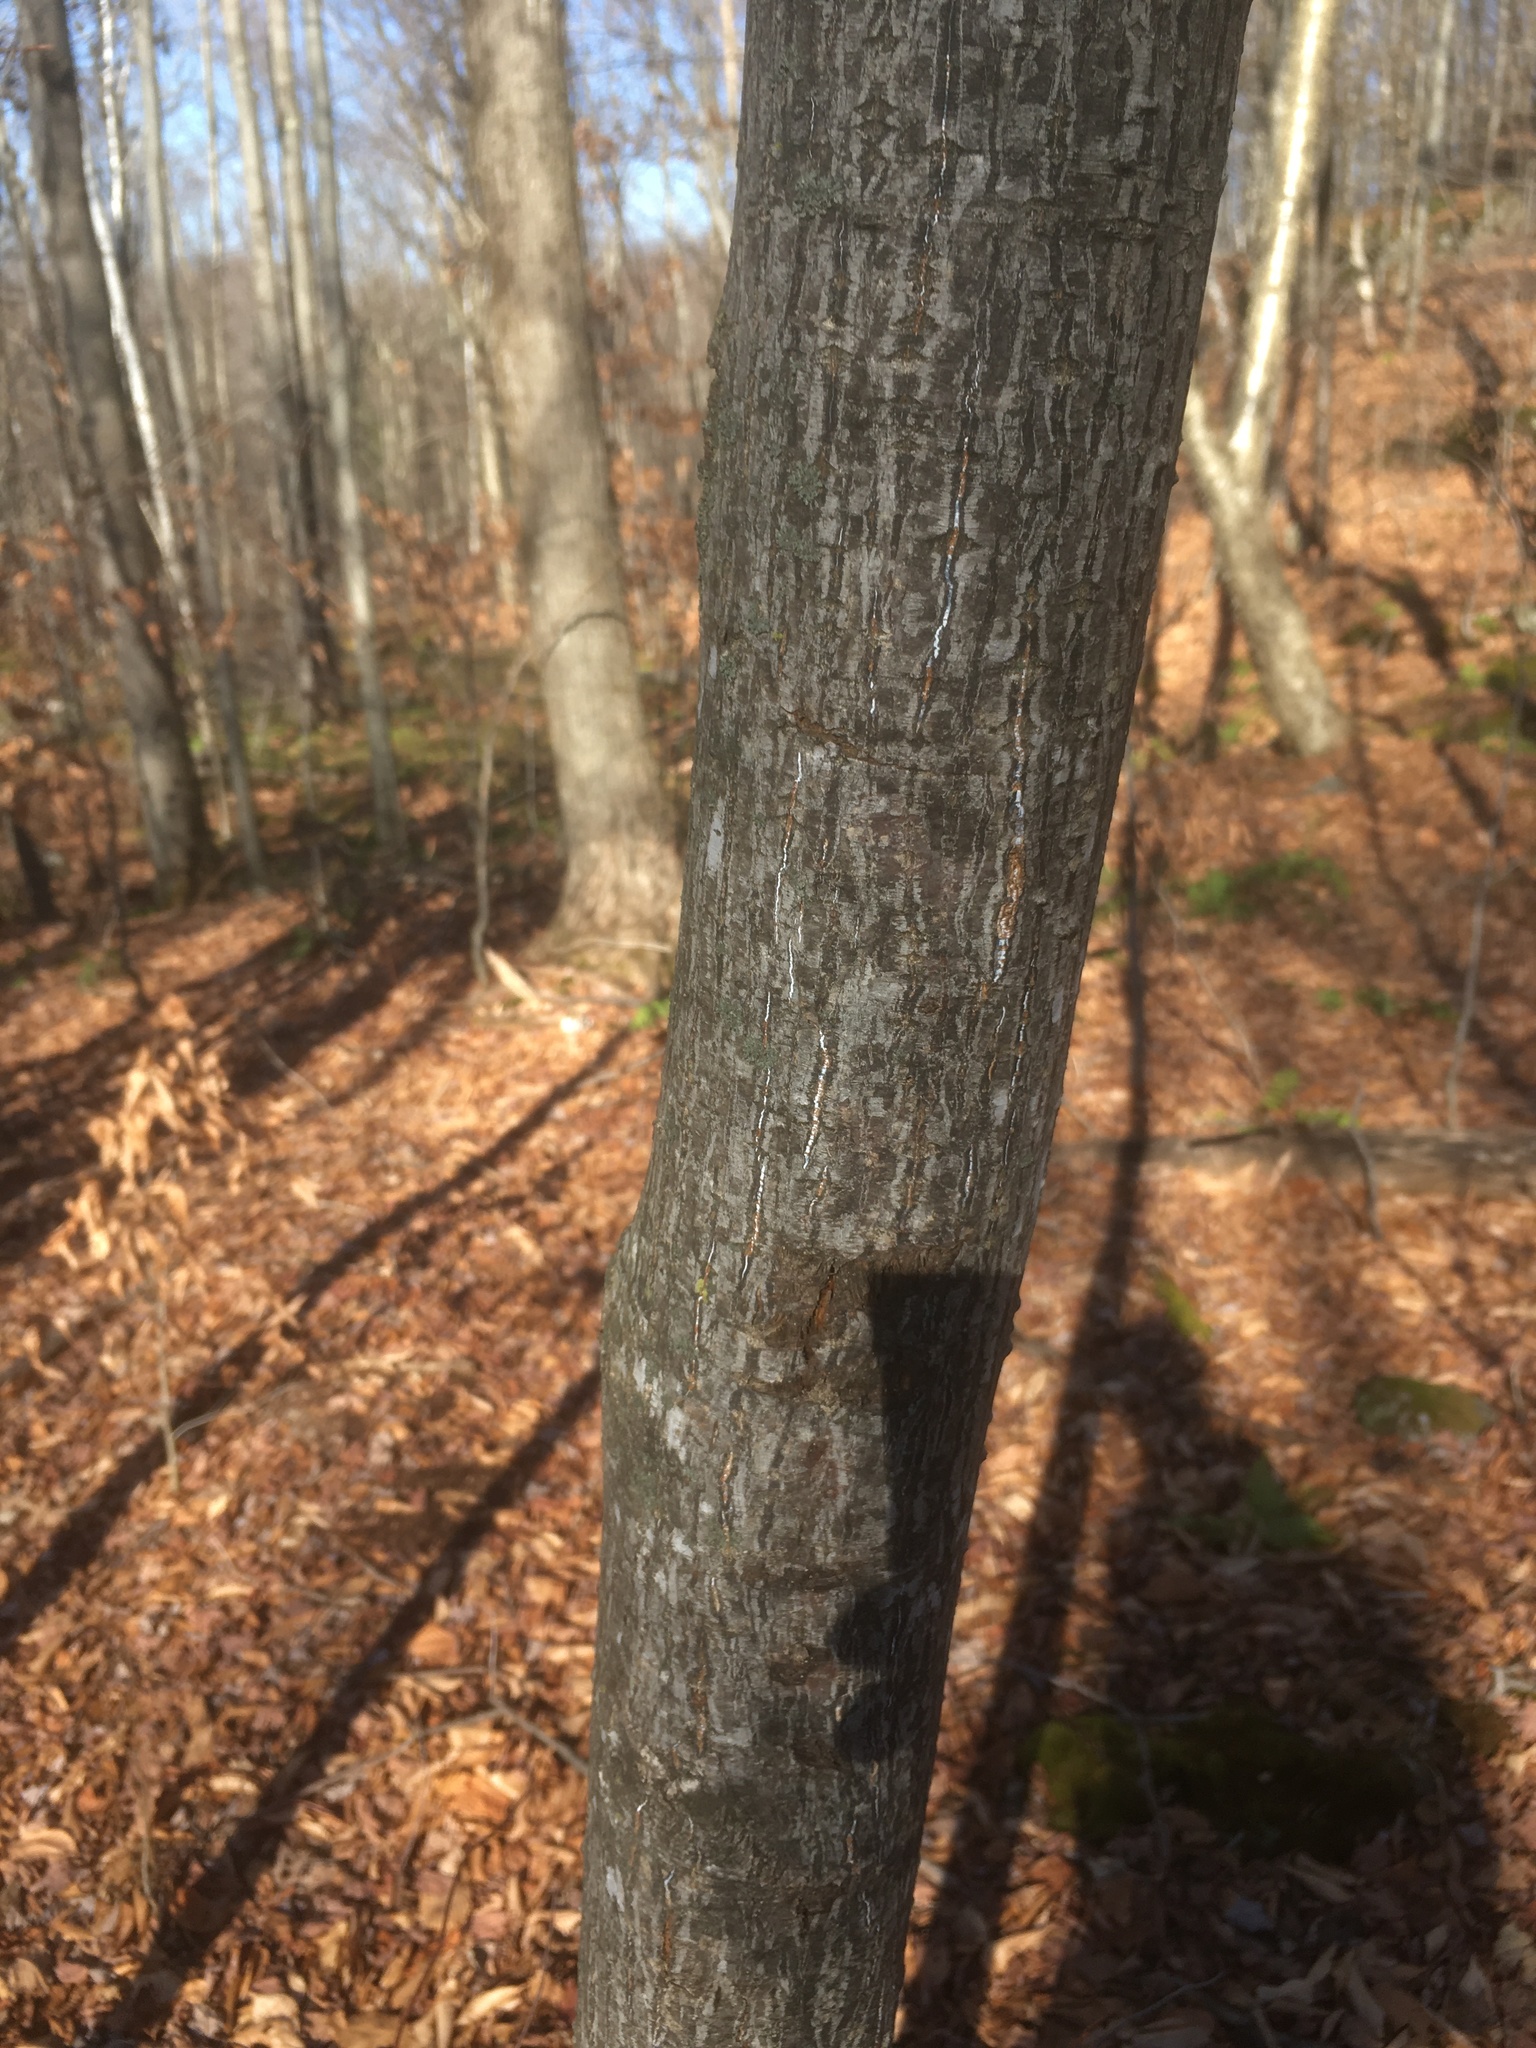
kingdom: Plantae
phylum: Tracheophyta
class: Magnoliopsida
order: Sapindales
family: Sapindaceae
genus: Acer
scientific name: Acer pensylvanicum
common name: Moosewood
